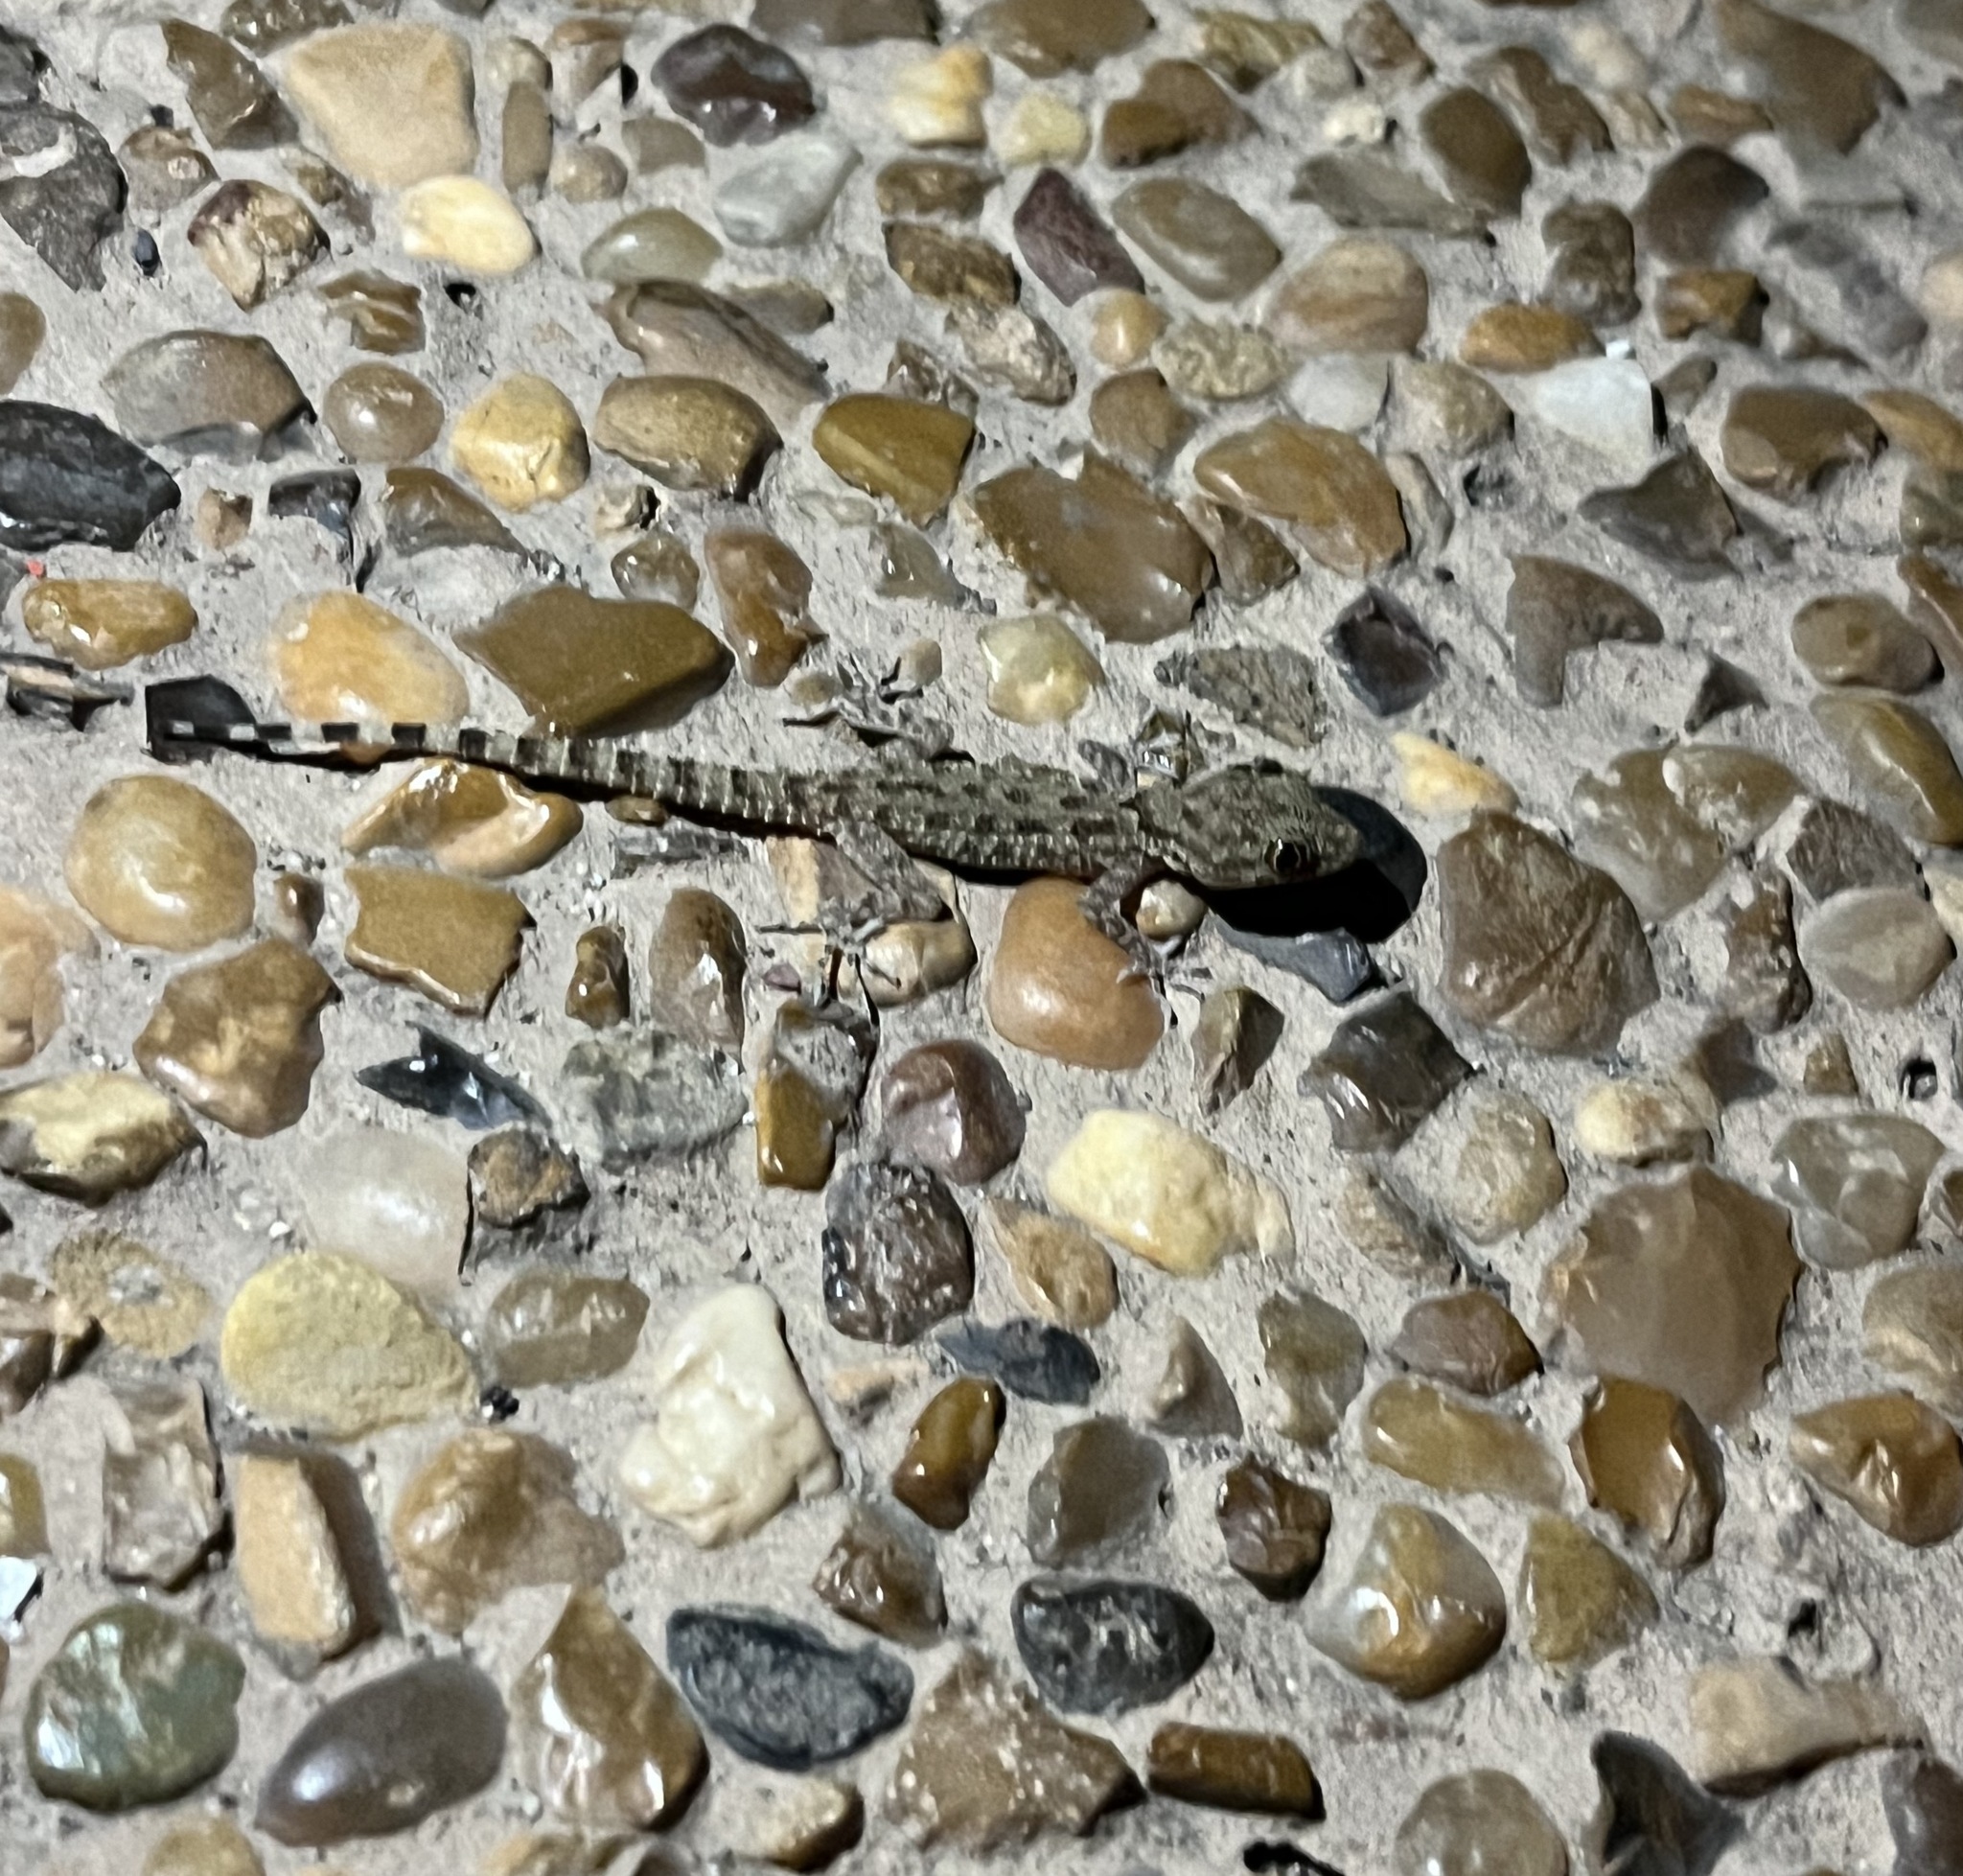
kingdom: Animalia
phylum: Chordata
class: Squamata
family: Gekkonidae
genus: Cyrtopodion
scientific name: Cyrtopodion scabrum
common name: Rough-tailed gecko
